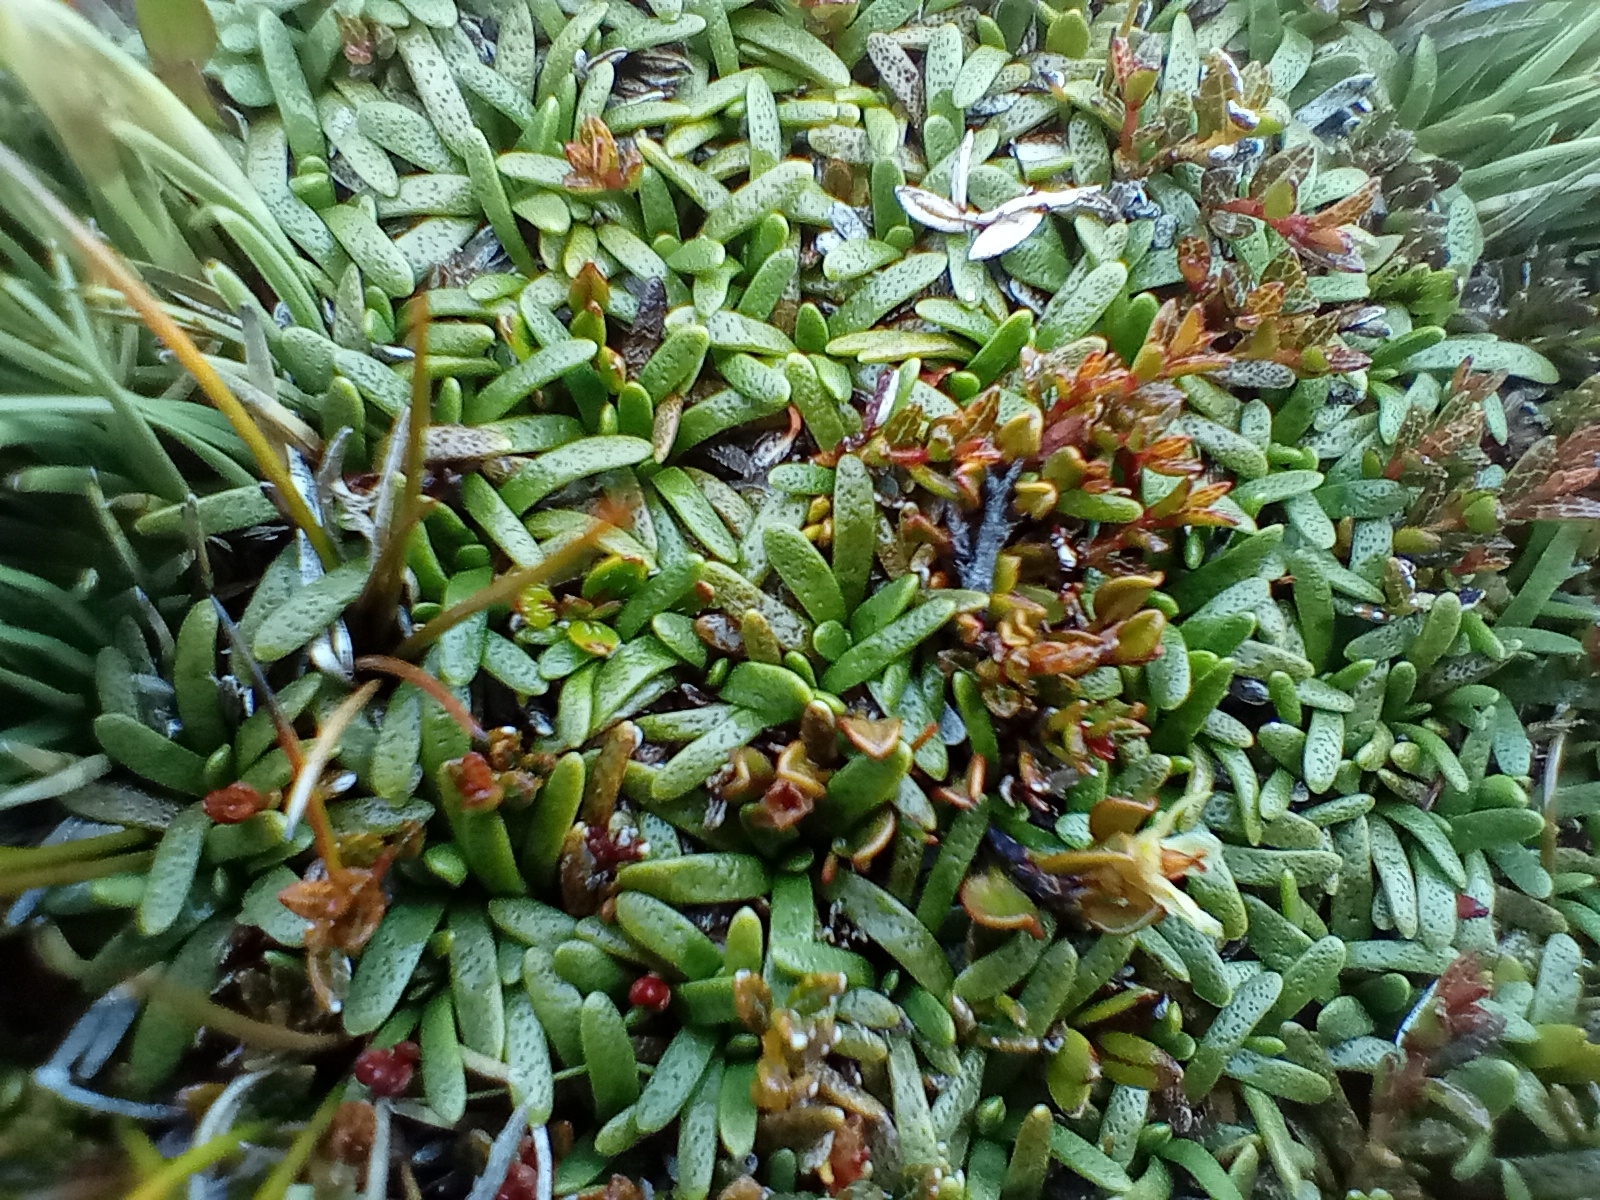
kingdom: Plantae
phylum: Tracheophyta
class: Magnoliopsida
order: Asterales
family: Asteraceae
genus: Abrotanella
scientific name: Abrotanella caespitosa
